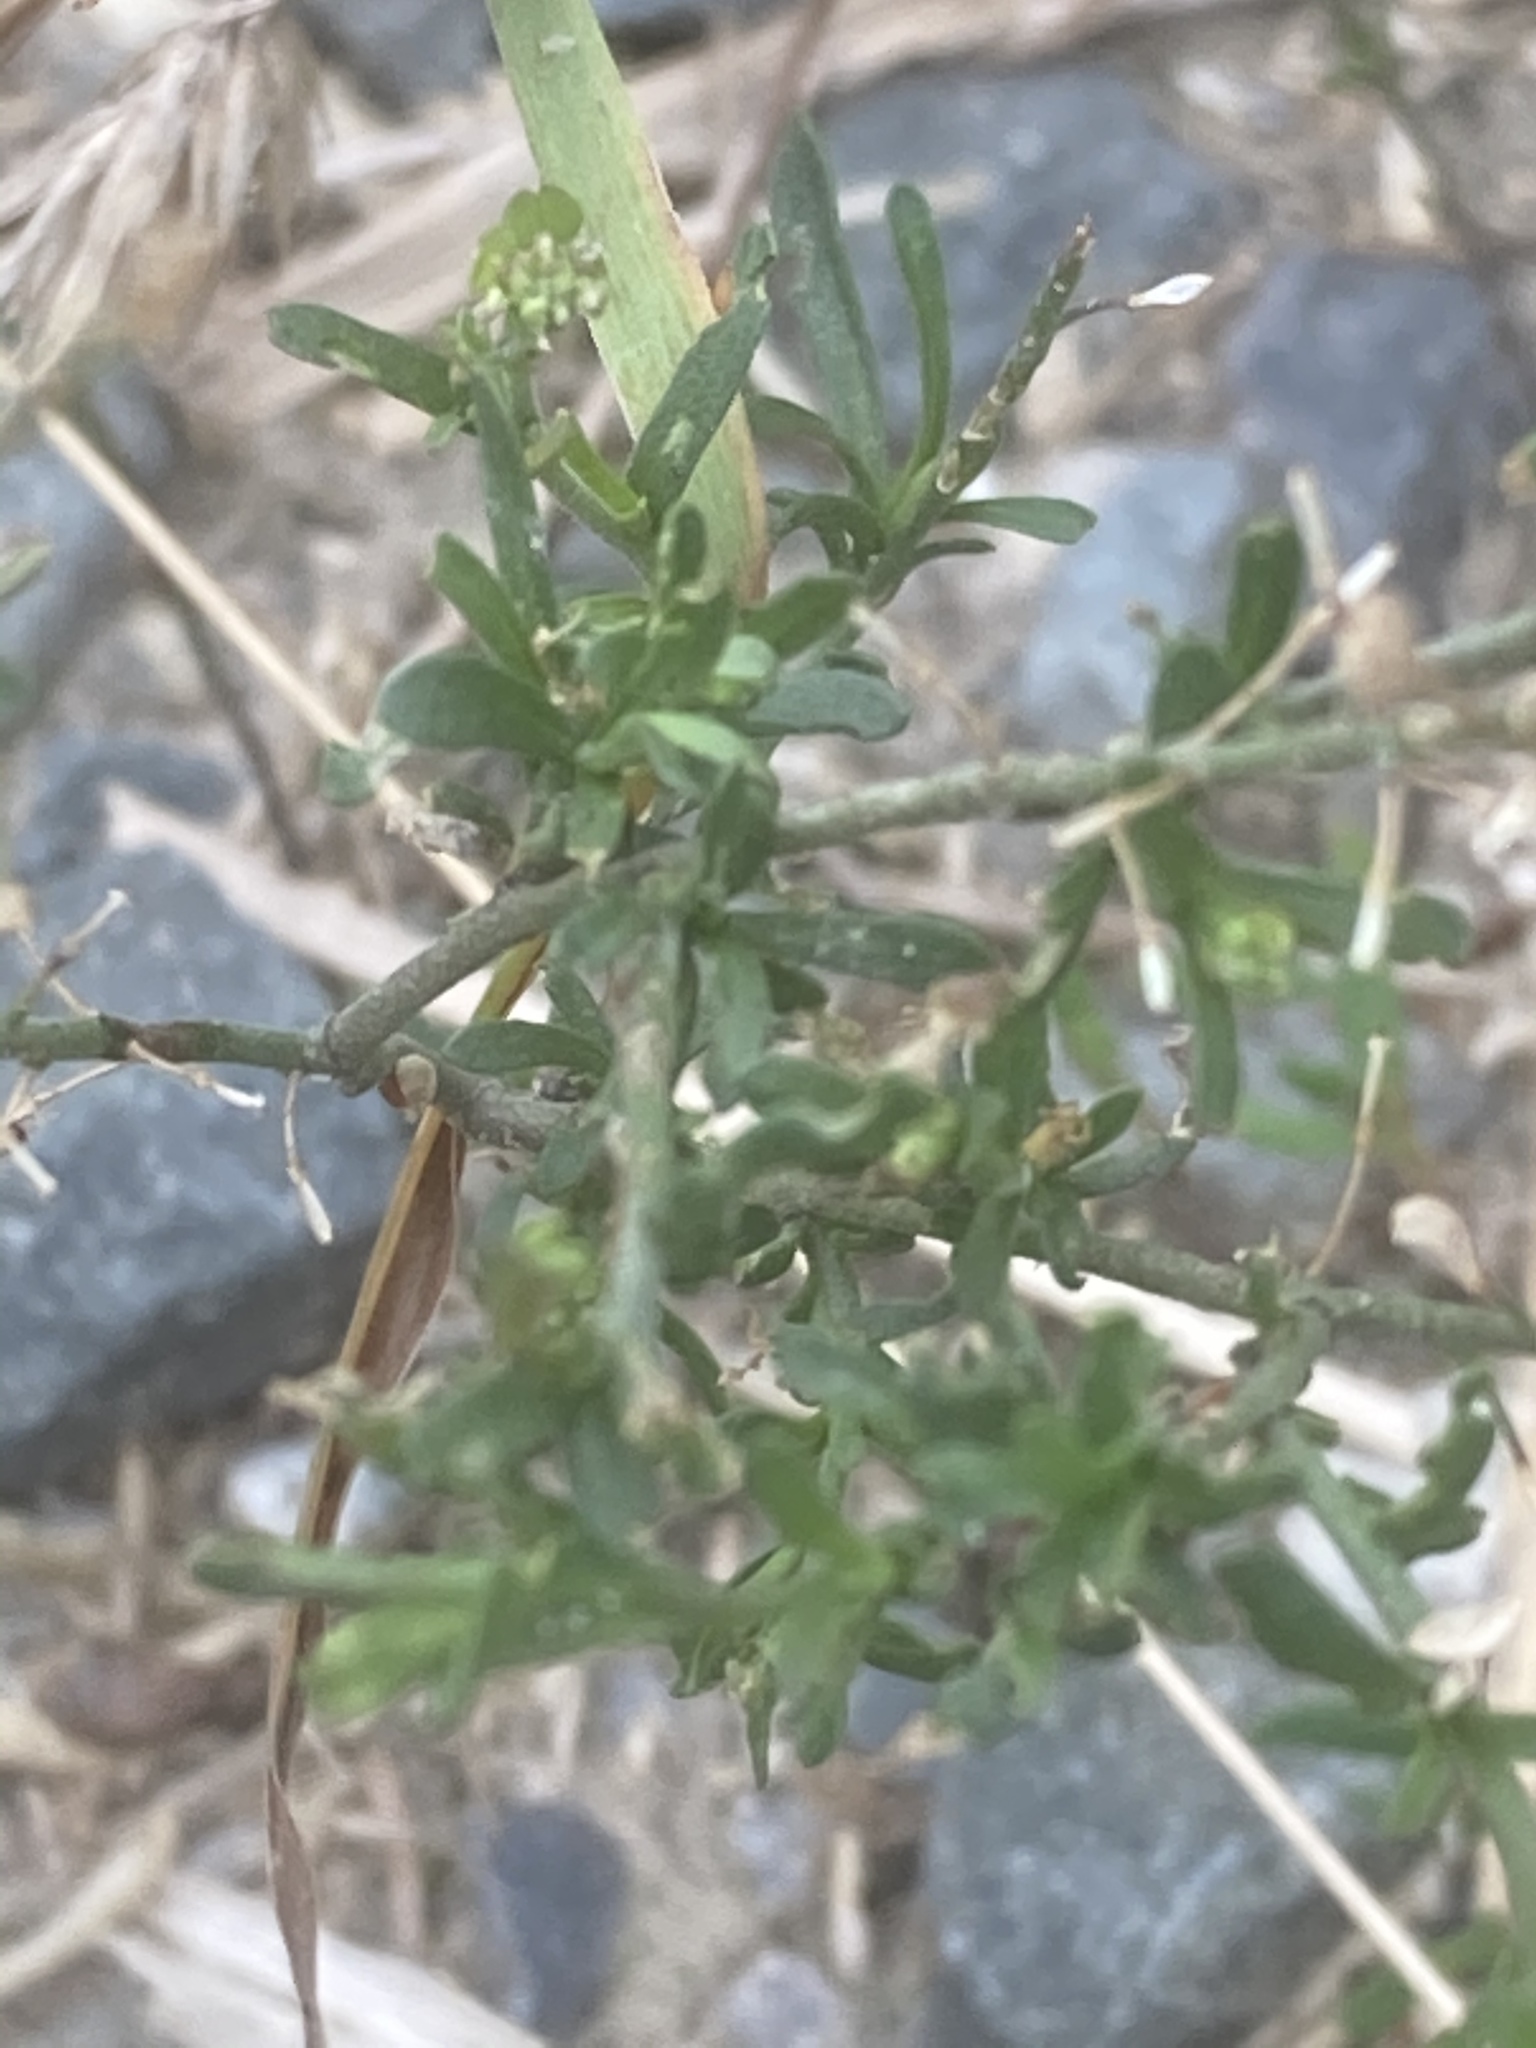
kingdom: Plantae
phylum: Tracheophyta
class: Magnoliopsida
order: Brassicales
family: Brassicaceae
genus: Lepidium
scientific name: Lepidium ruderale
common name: Narrow-leaved pepperwort
